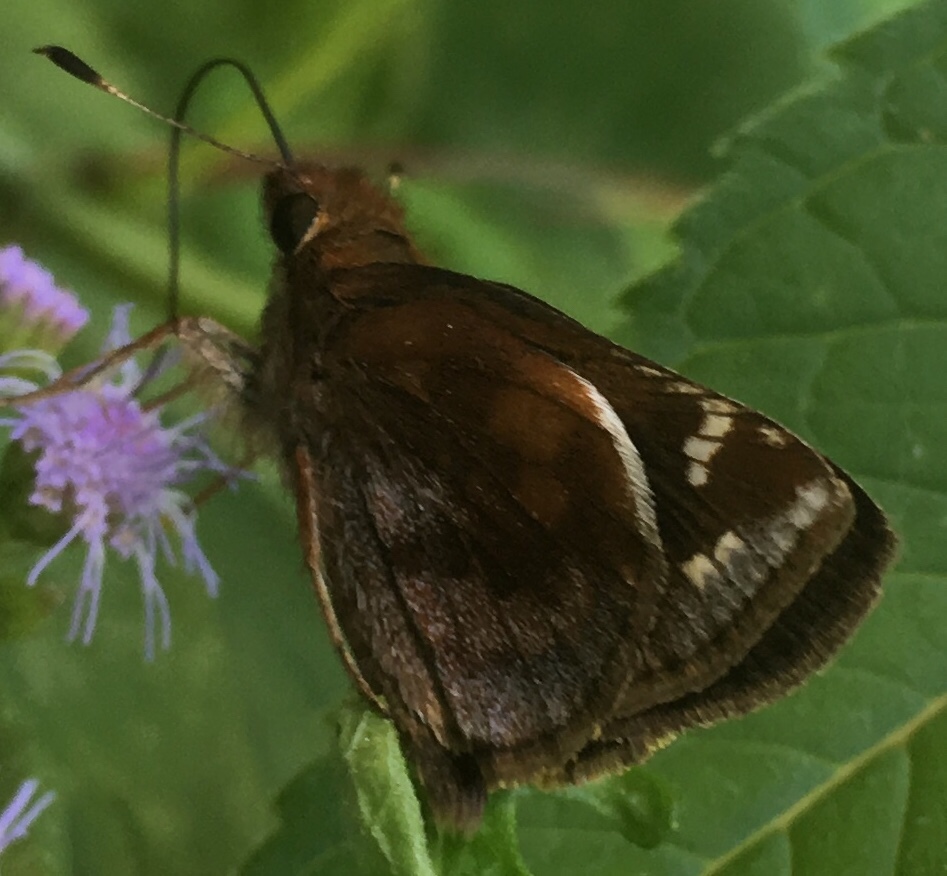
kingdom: Animalia
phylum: Arthropoda
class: Insecta
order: Lepidoptera
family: Hesperiidae
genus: Lon
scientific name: Lon zabulon
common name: Zabulon skipper
